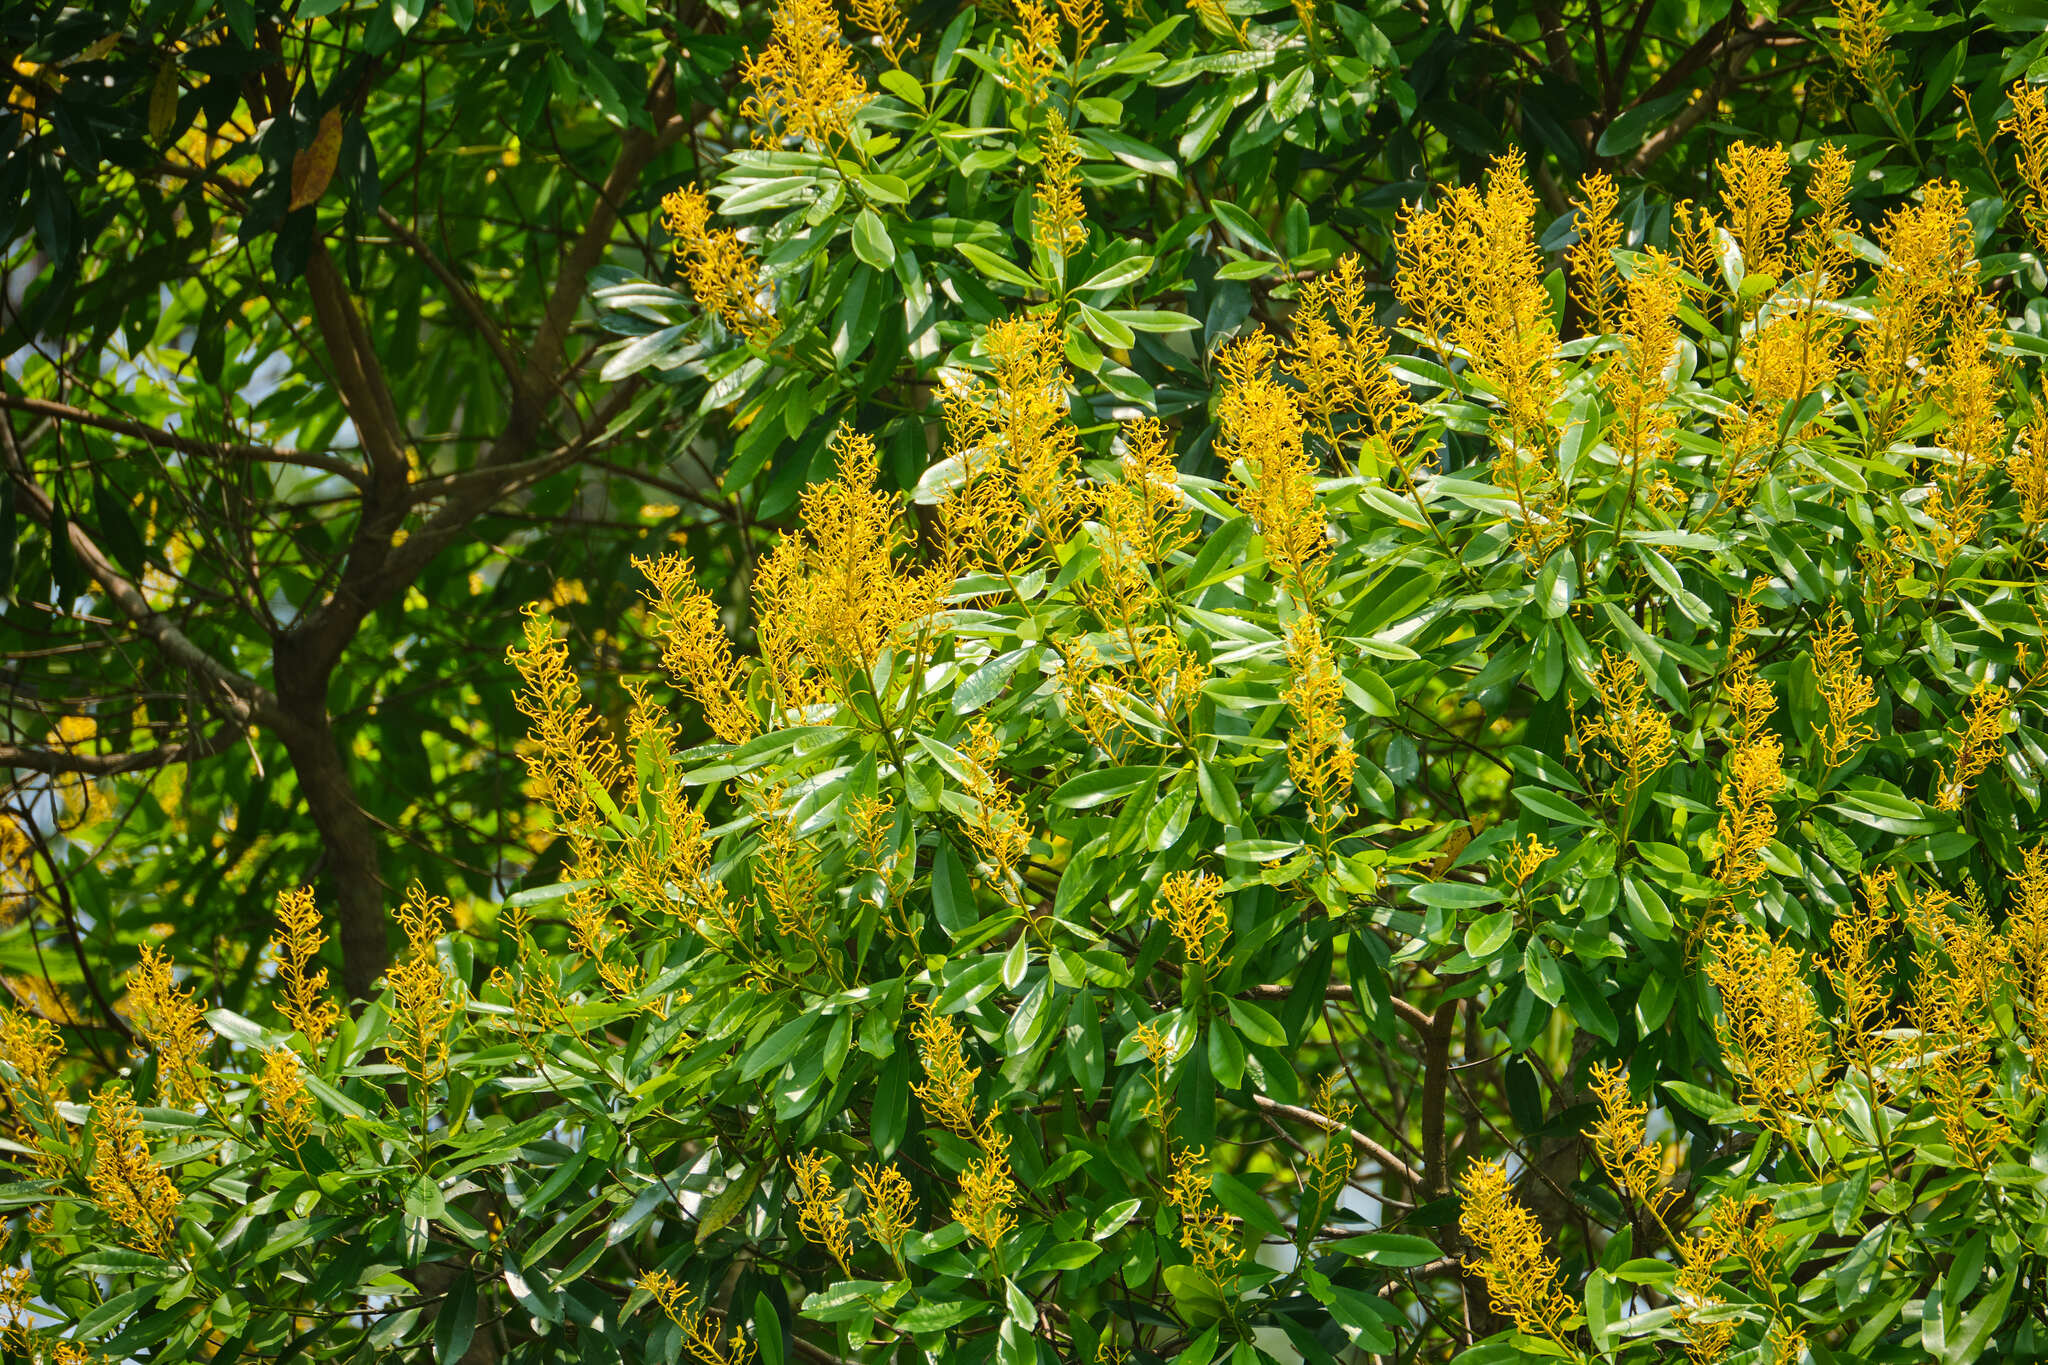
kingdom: Plantae
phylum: Tracheophyta
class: Magnoliopsida
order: Myrtales
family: Vochysiaceae
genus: Vochysia
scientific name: Vochysia guatemalensis
